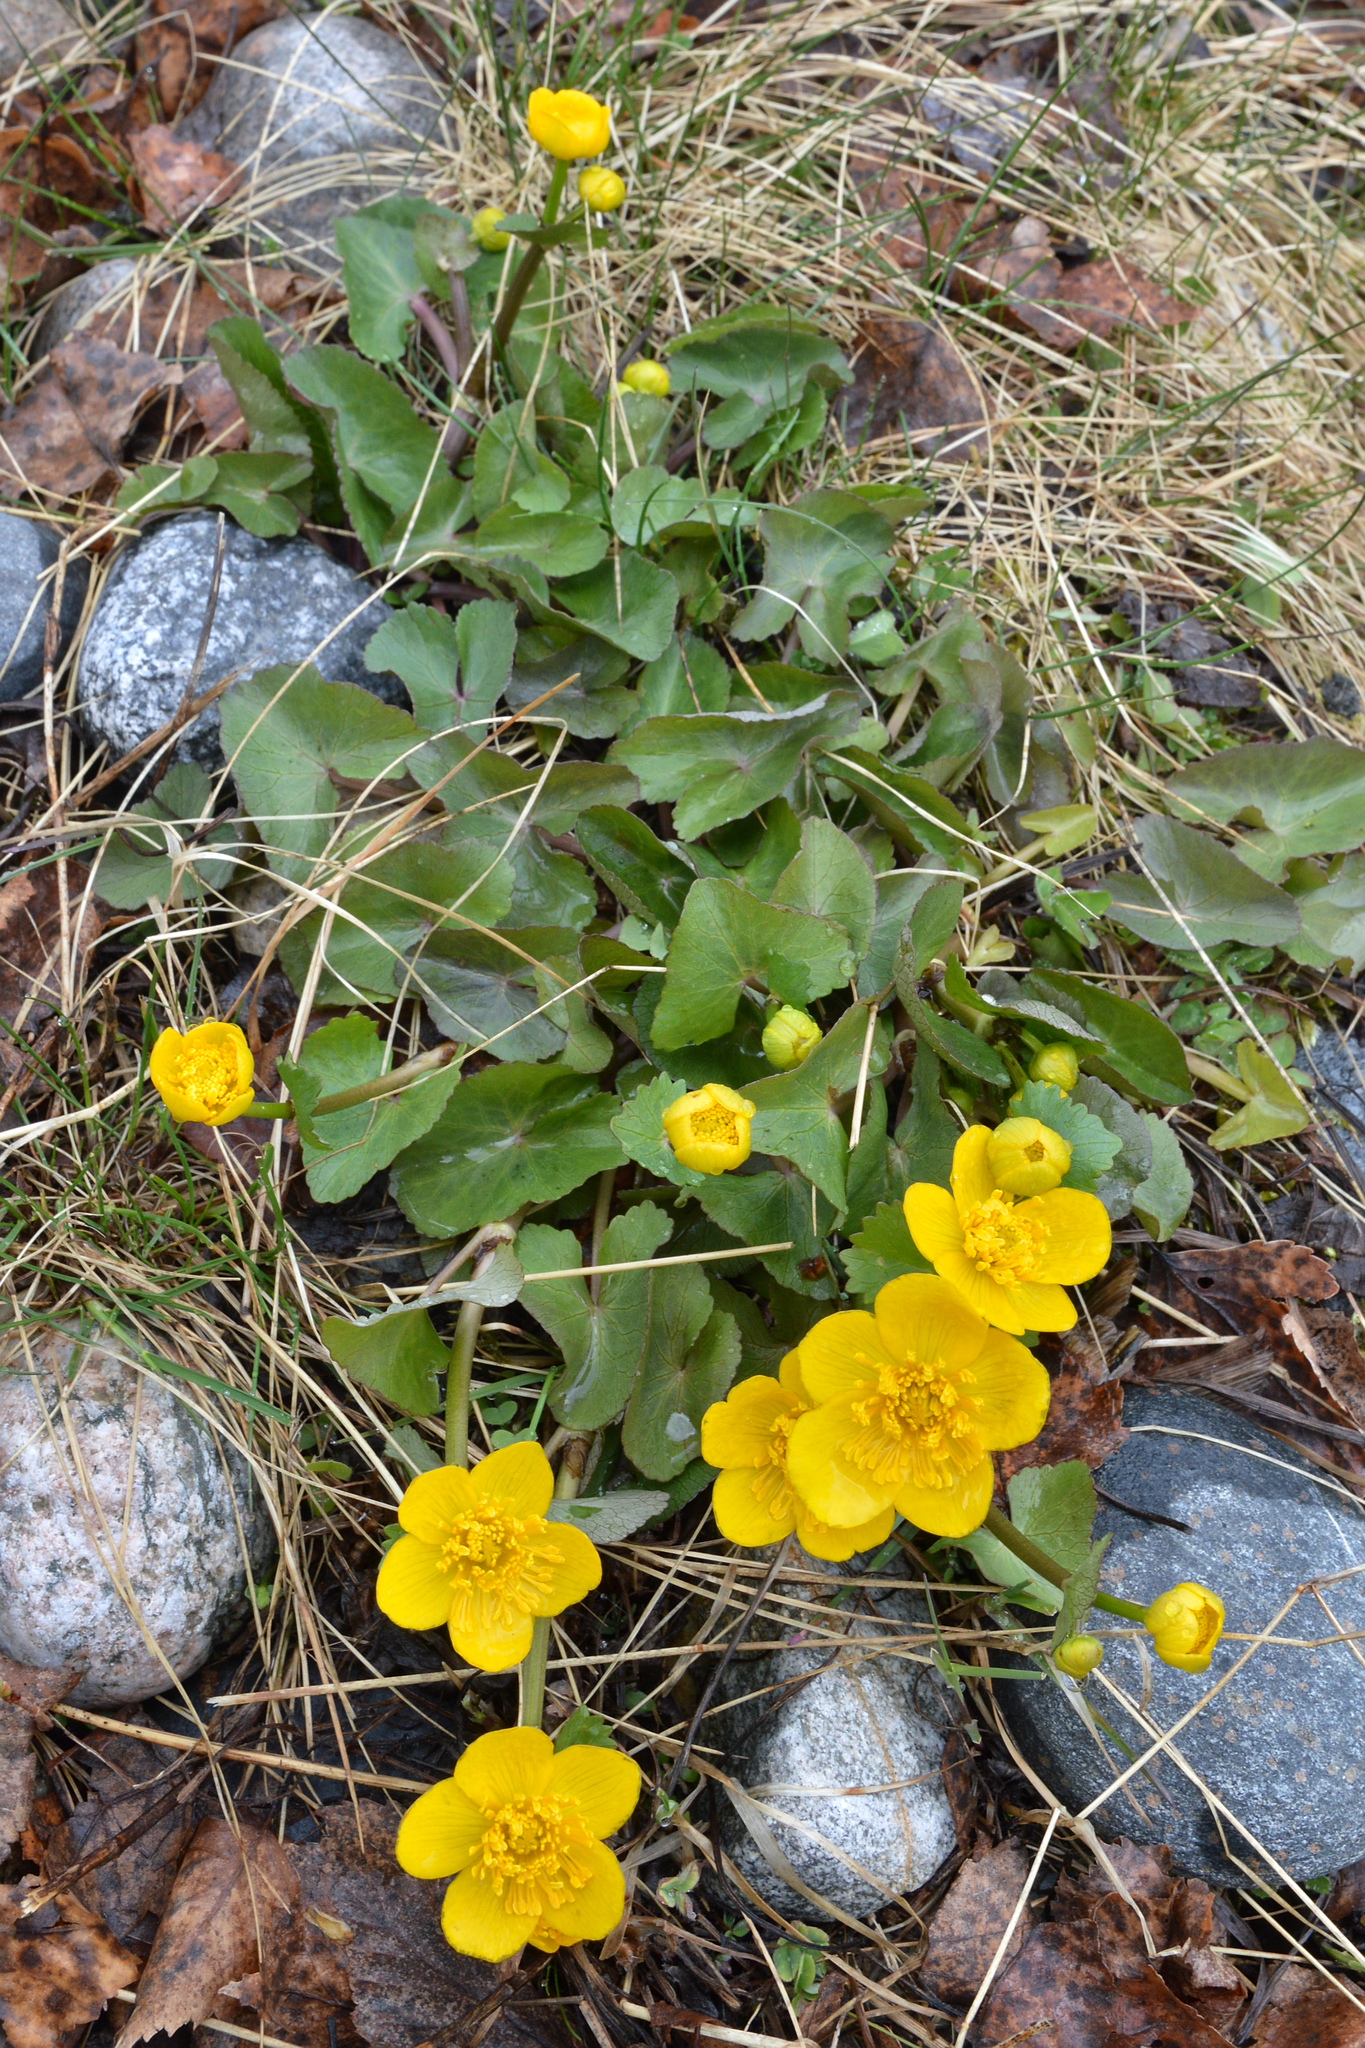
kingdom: Plantae
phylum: Tracheophyta
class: Magnoliopsida
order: Ranunculales
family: Ranunculaceae
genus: Caltha
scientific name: Caltha palustris
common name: Marsh marigold
